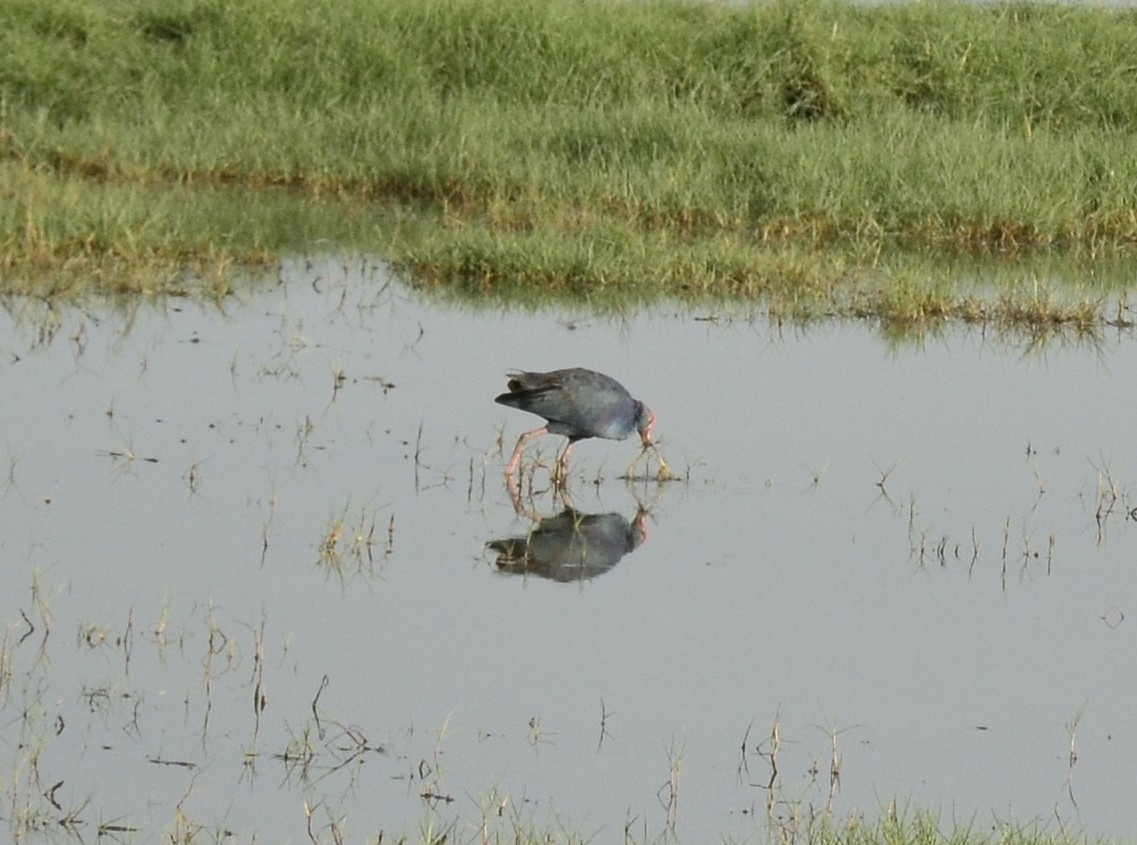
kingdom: Animalia
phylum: Chordata
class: Aves
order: Gruiformes
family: Rallidae
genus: Porphyrio
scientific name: Porphyrio porphyrio
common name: Purple swamphen
